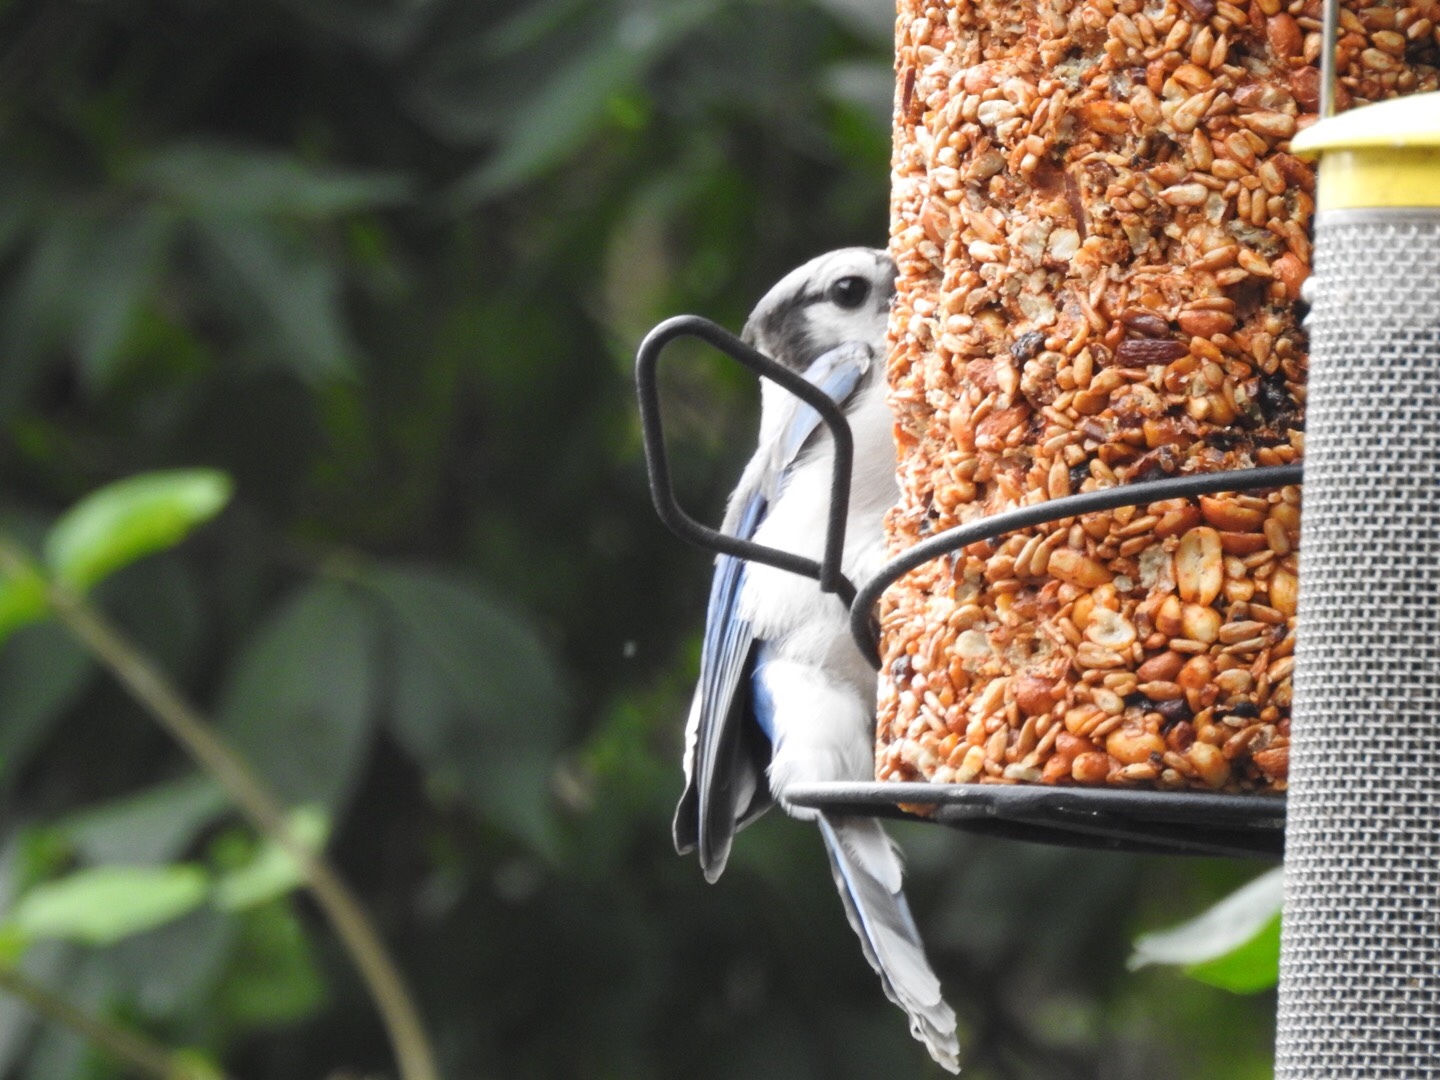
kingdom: Animalia
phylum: Chordata
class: Aves
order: Passeriformes
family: Corvidae
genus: Cyanocitta
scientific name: Cyanocitta cristata
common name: Blue jay
